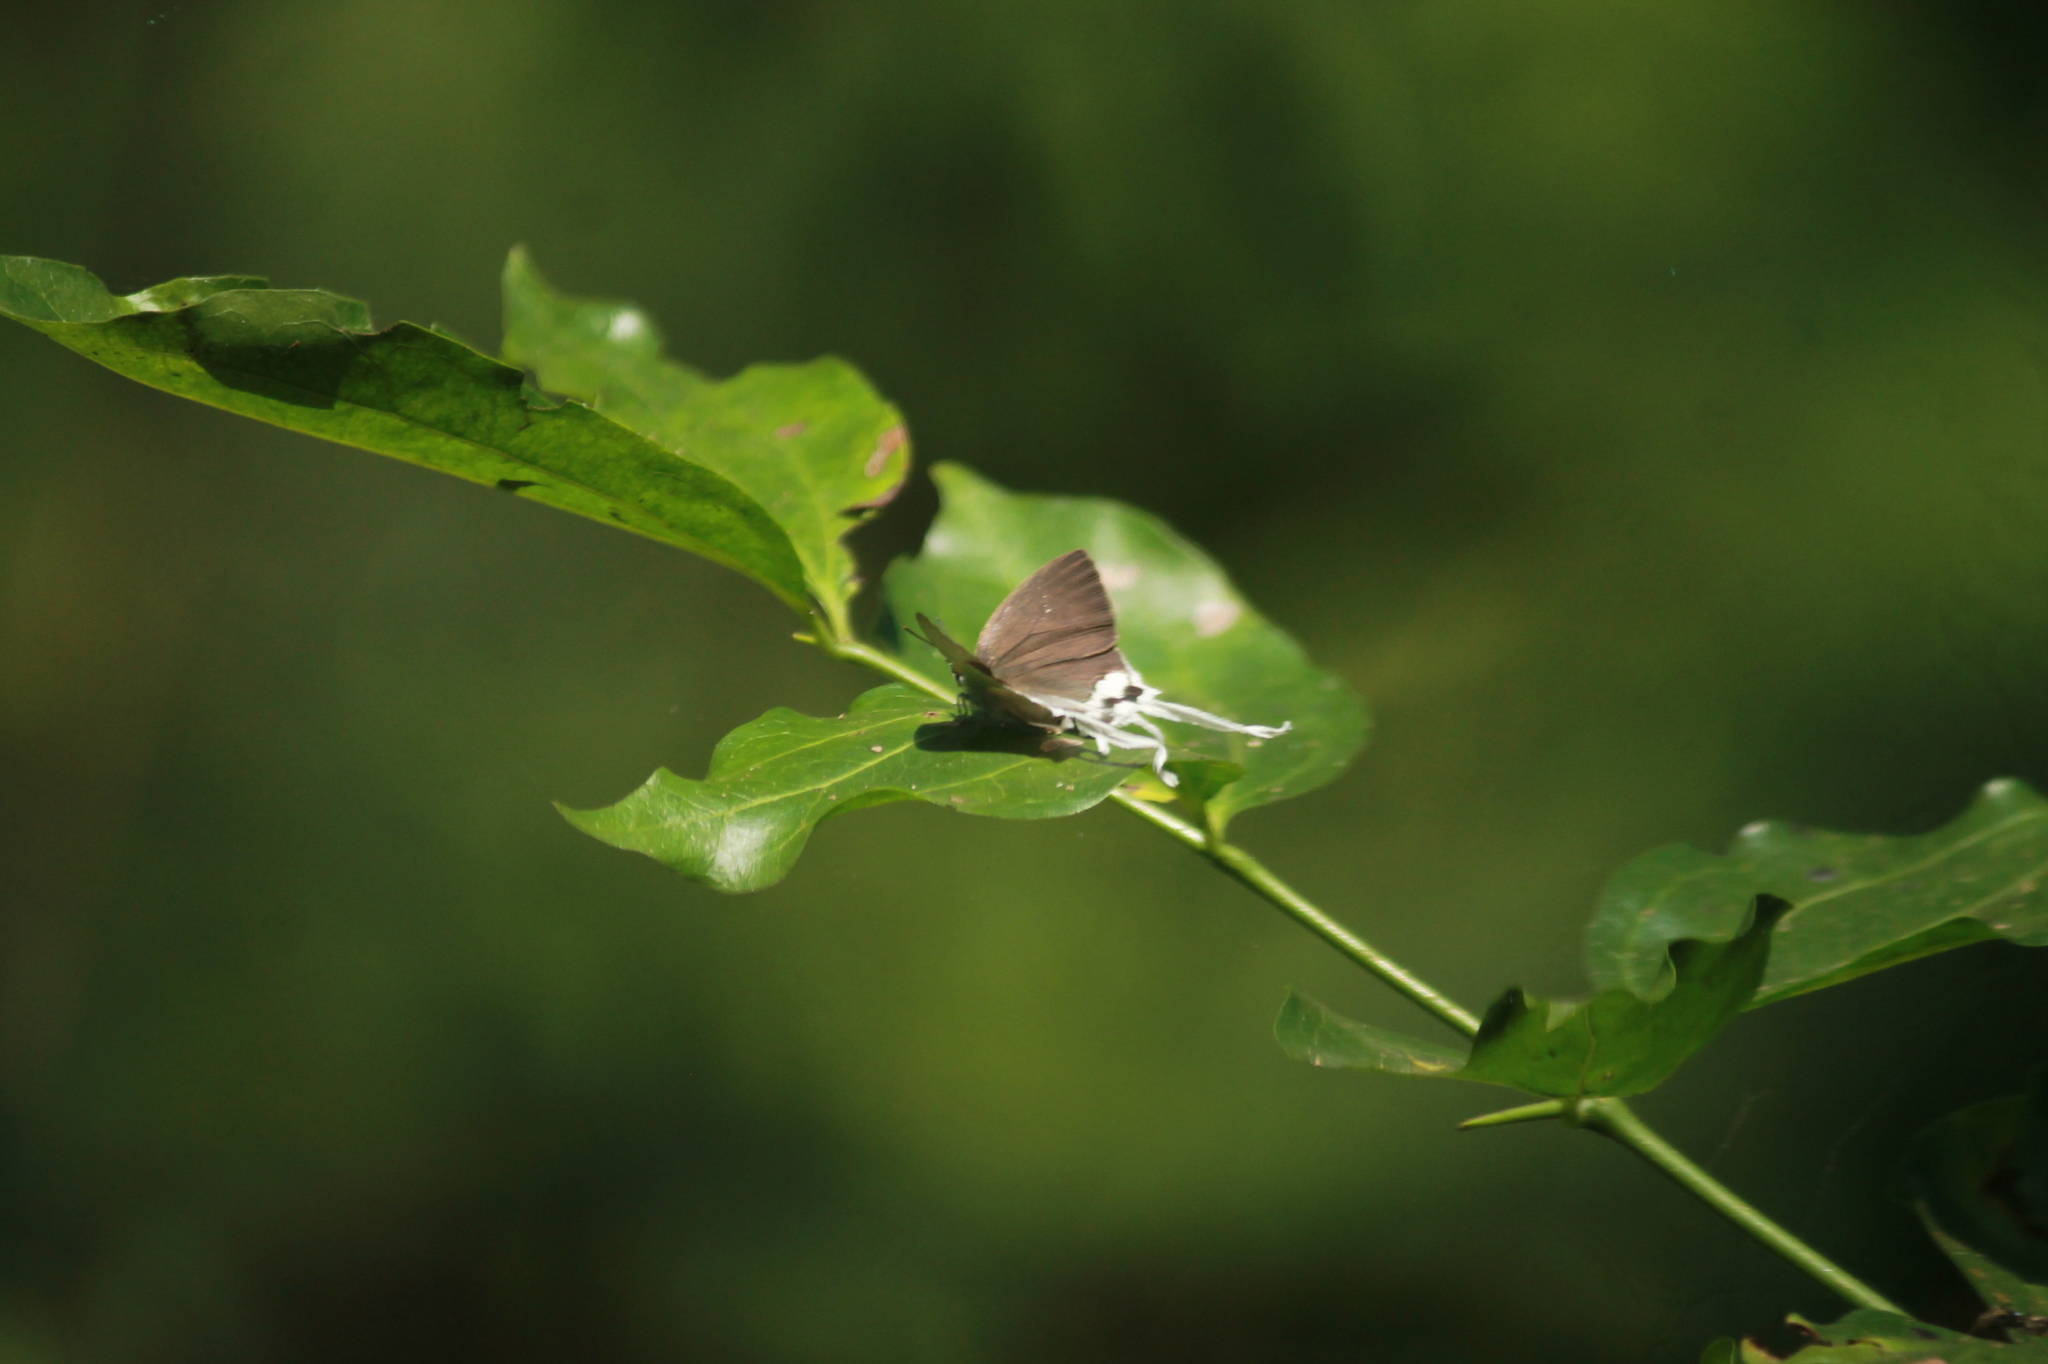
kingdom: Animalia
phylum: Arthropoda
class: Insecta
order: Lepidoptera
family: Lycaenidae
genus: Cheritra
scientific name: Cheritra freja
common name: Common imperial
